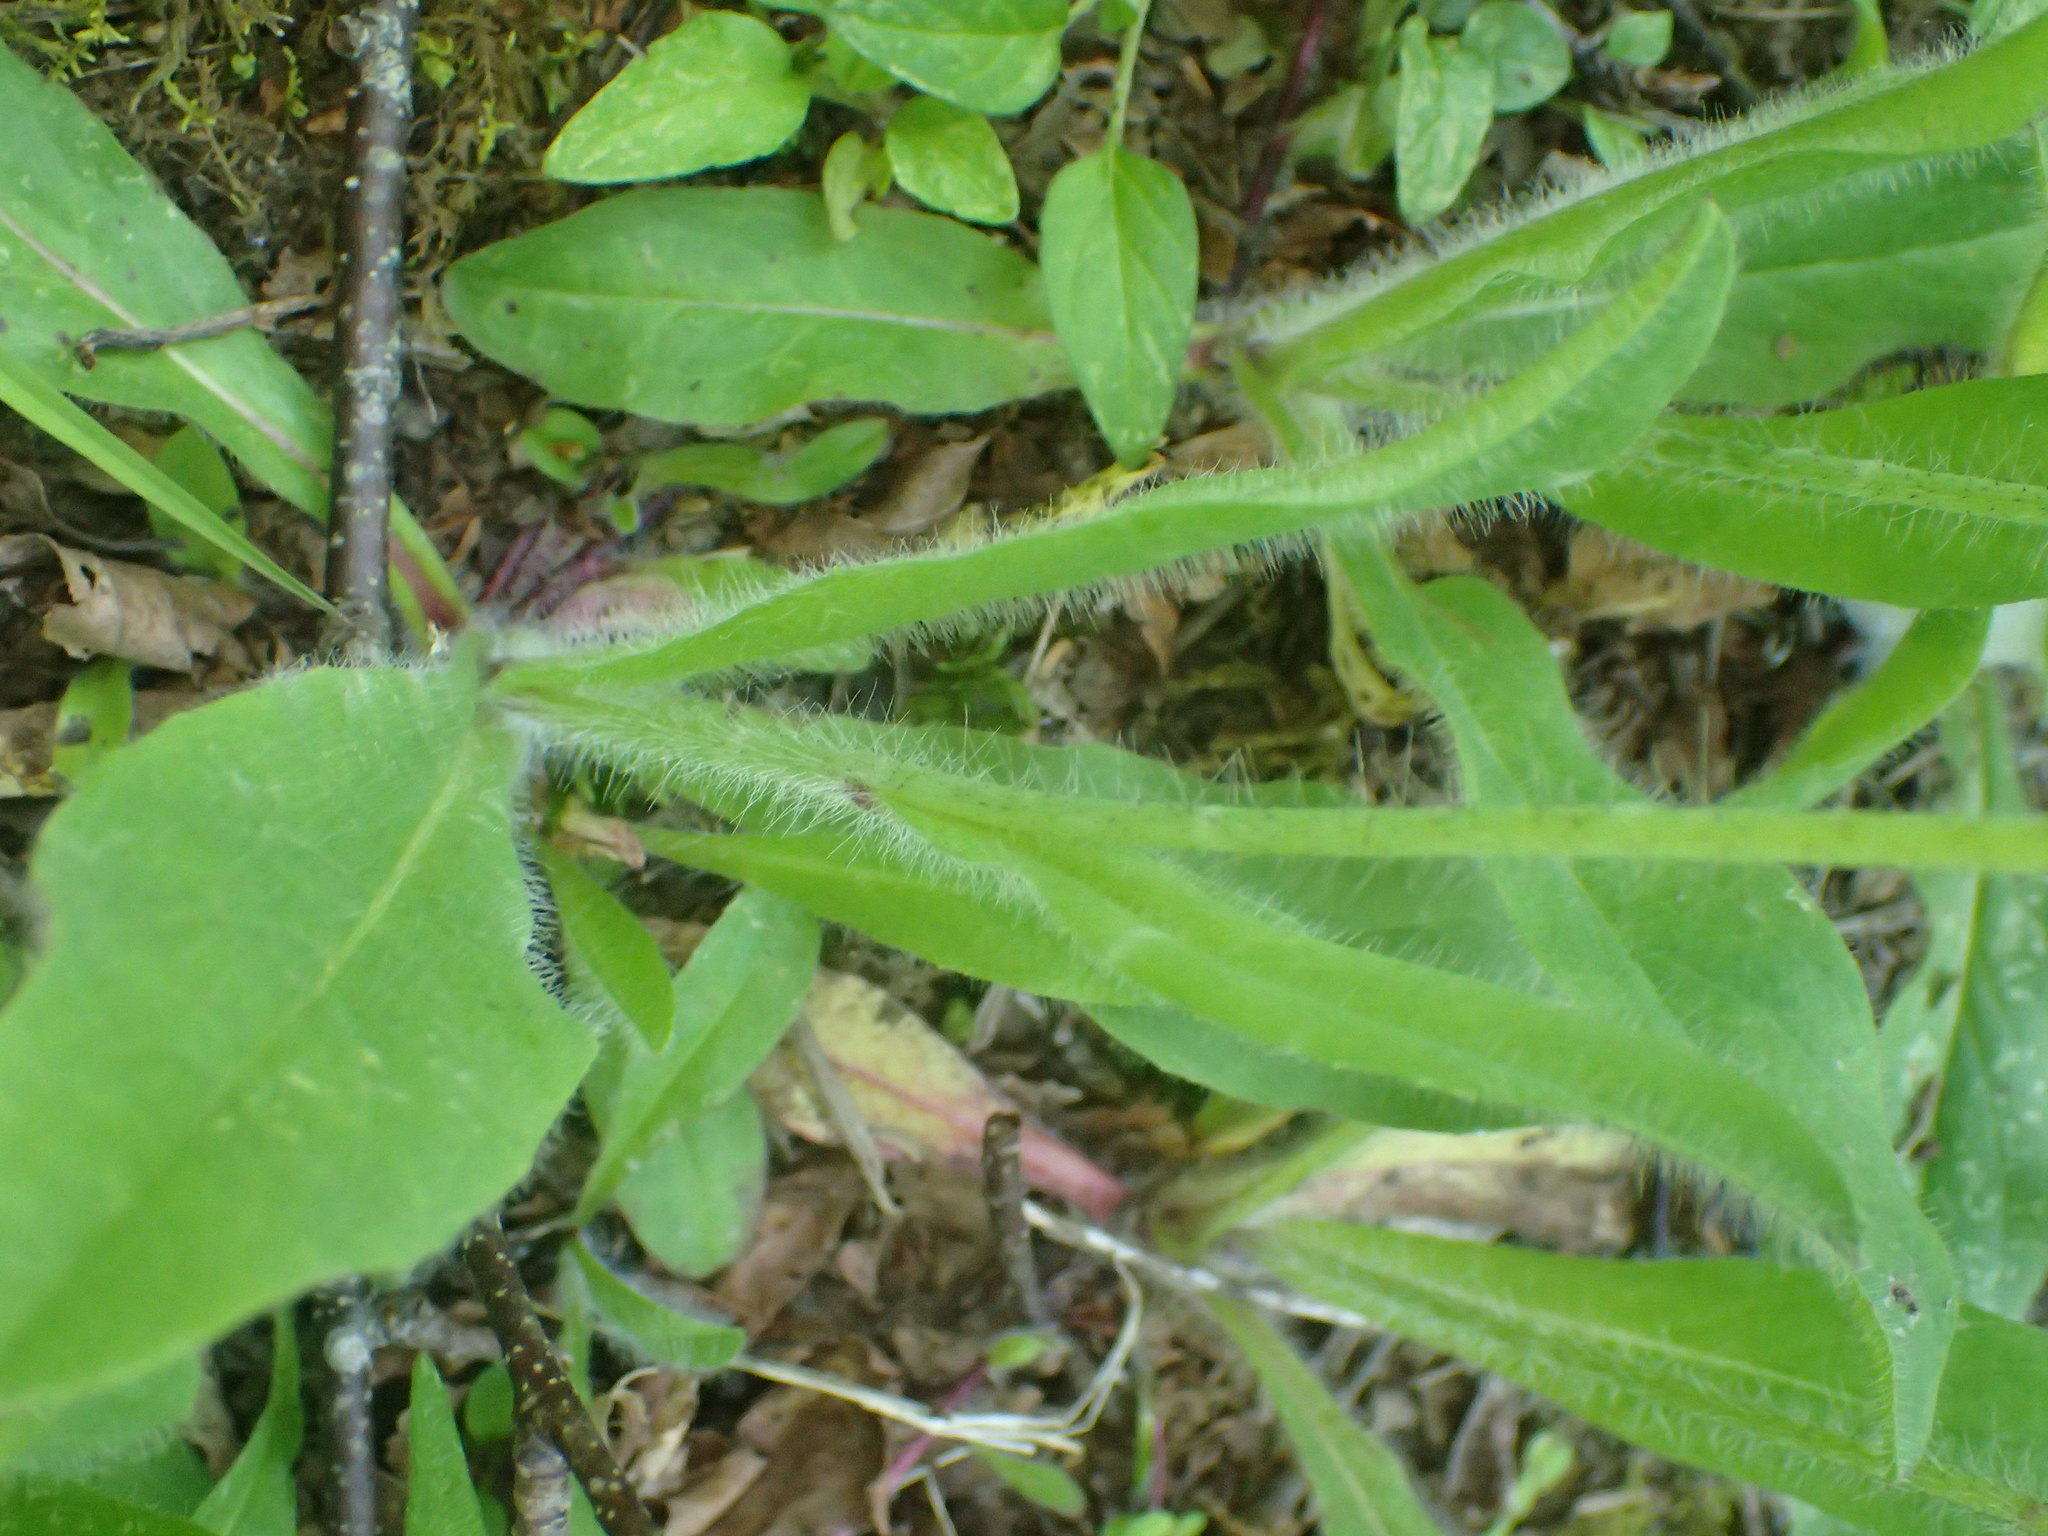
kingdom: Plantae
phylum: Tracheophyta
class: Magnoliopsida
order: Asterales
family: Asteraceae
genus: Pilosella
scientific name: Pilosella aurantiaca
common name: Fox-and-cubs
